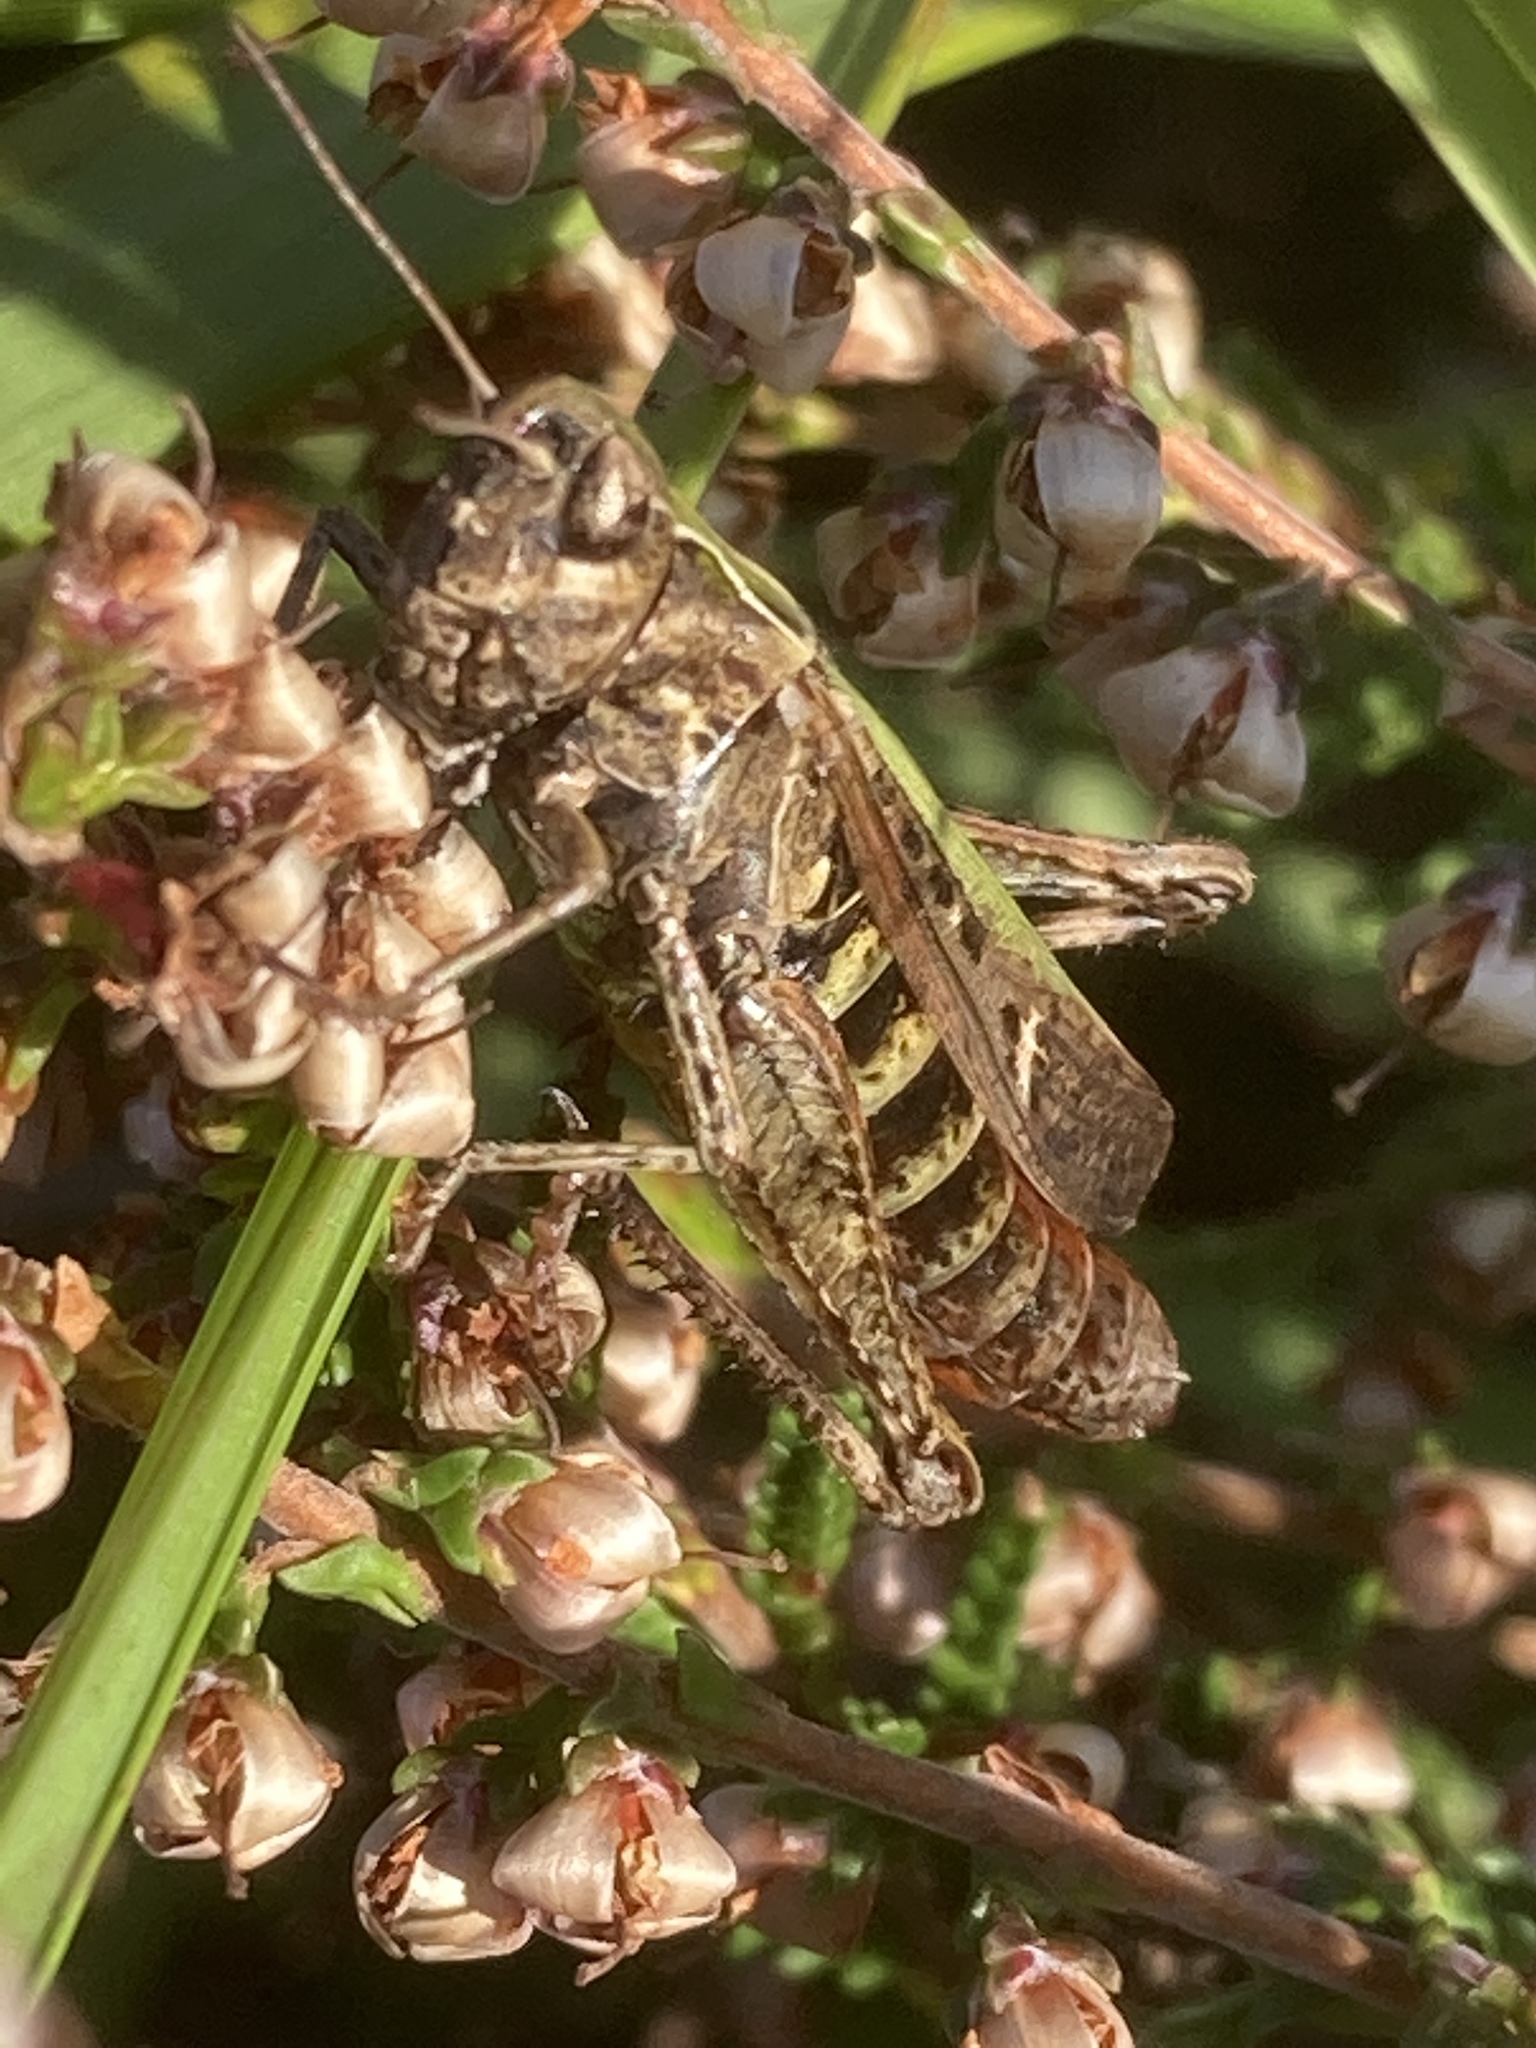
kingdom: Animalia
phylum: Arthropoda
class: Insecta
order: Orthoptera
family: Acrididae
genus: Omocestus
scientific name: Omocestus rufipes
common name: Woodland grasshopper
